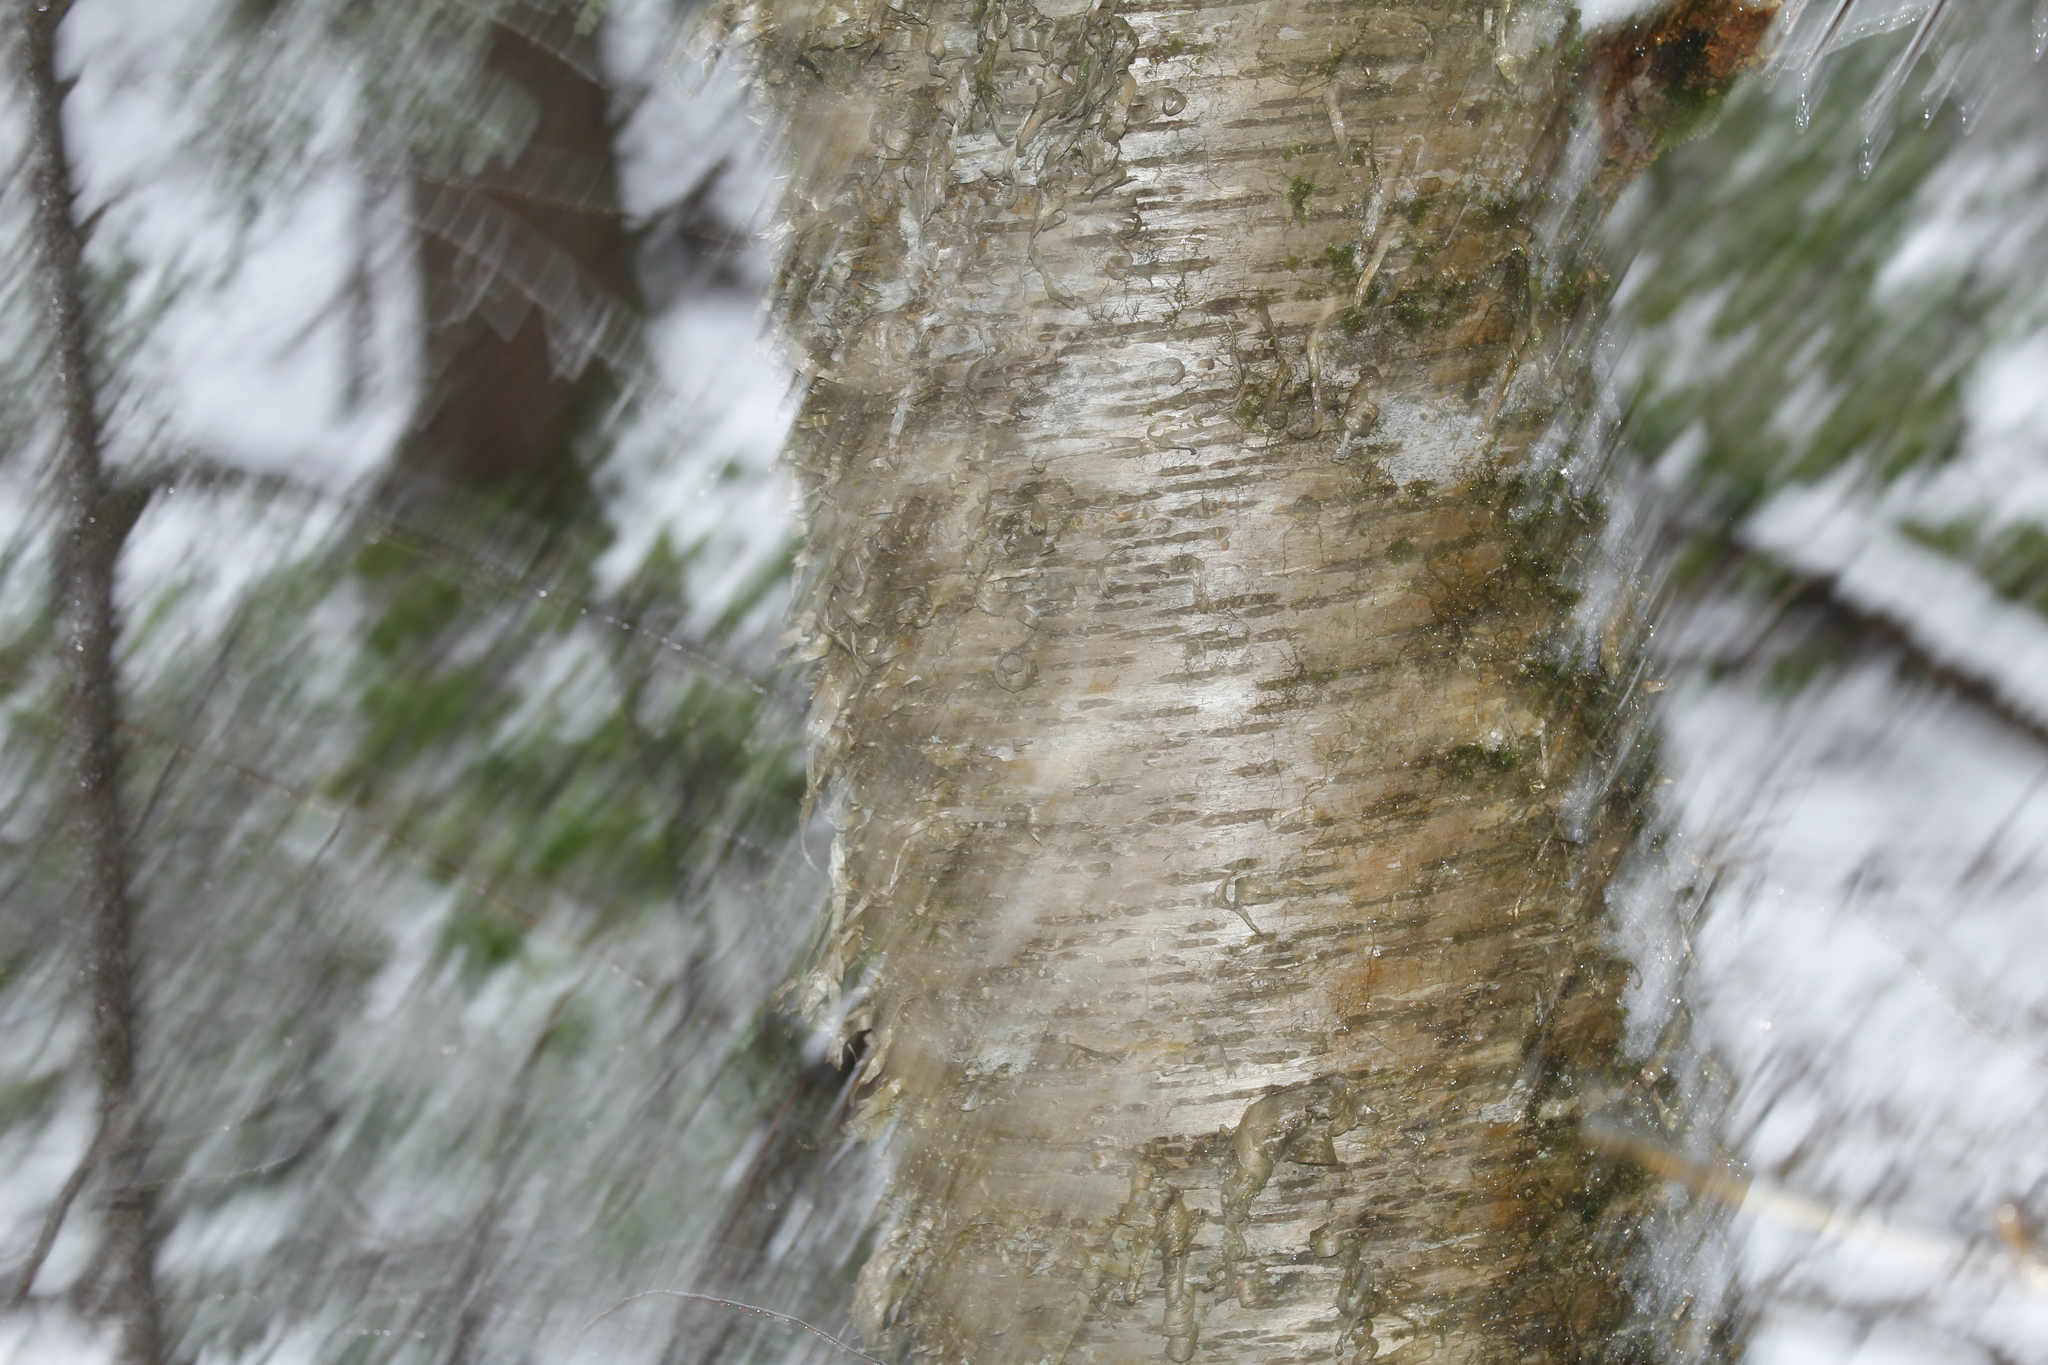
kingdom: Plantae
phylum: Tracheophyta
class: Magnoliopsida
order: Fagales
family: Betulaceae
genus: Betula
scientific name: Betula alleghaniensis
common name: Yellow birch
